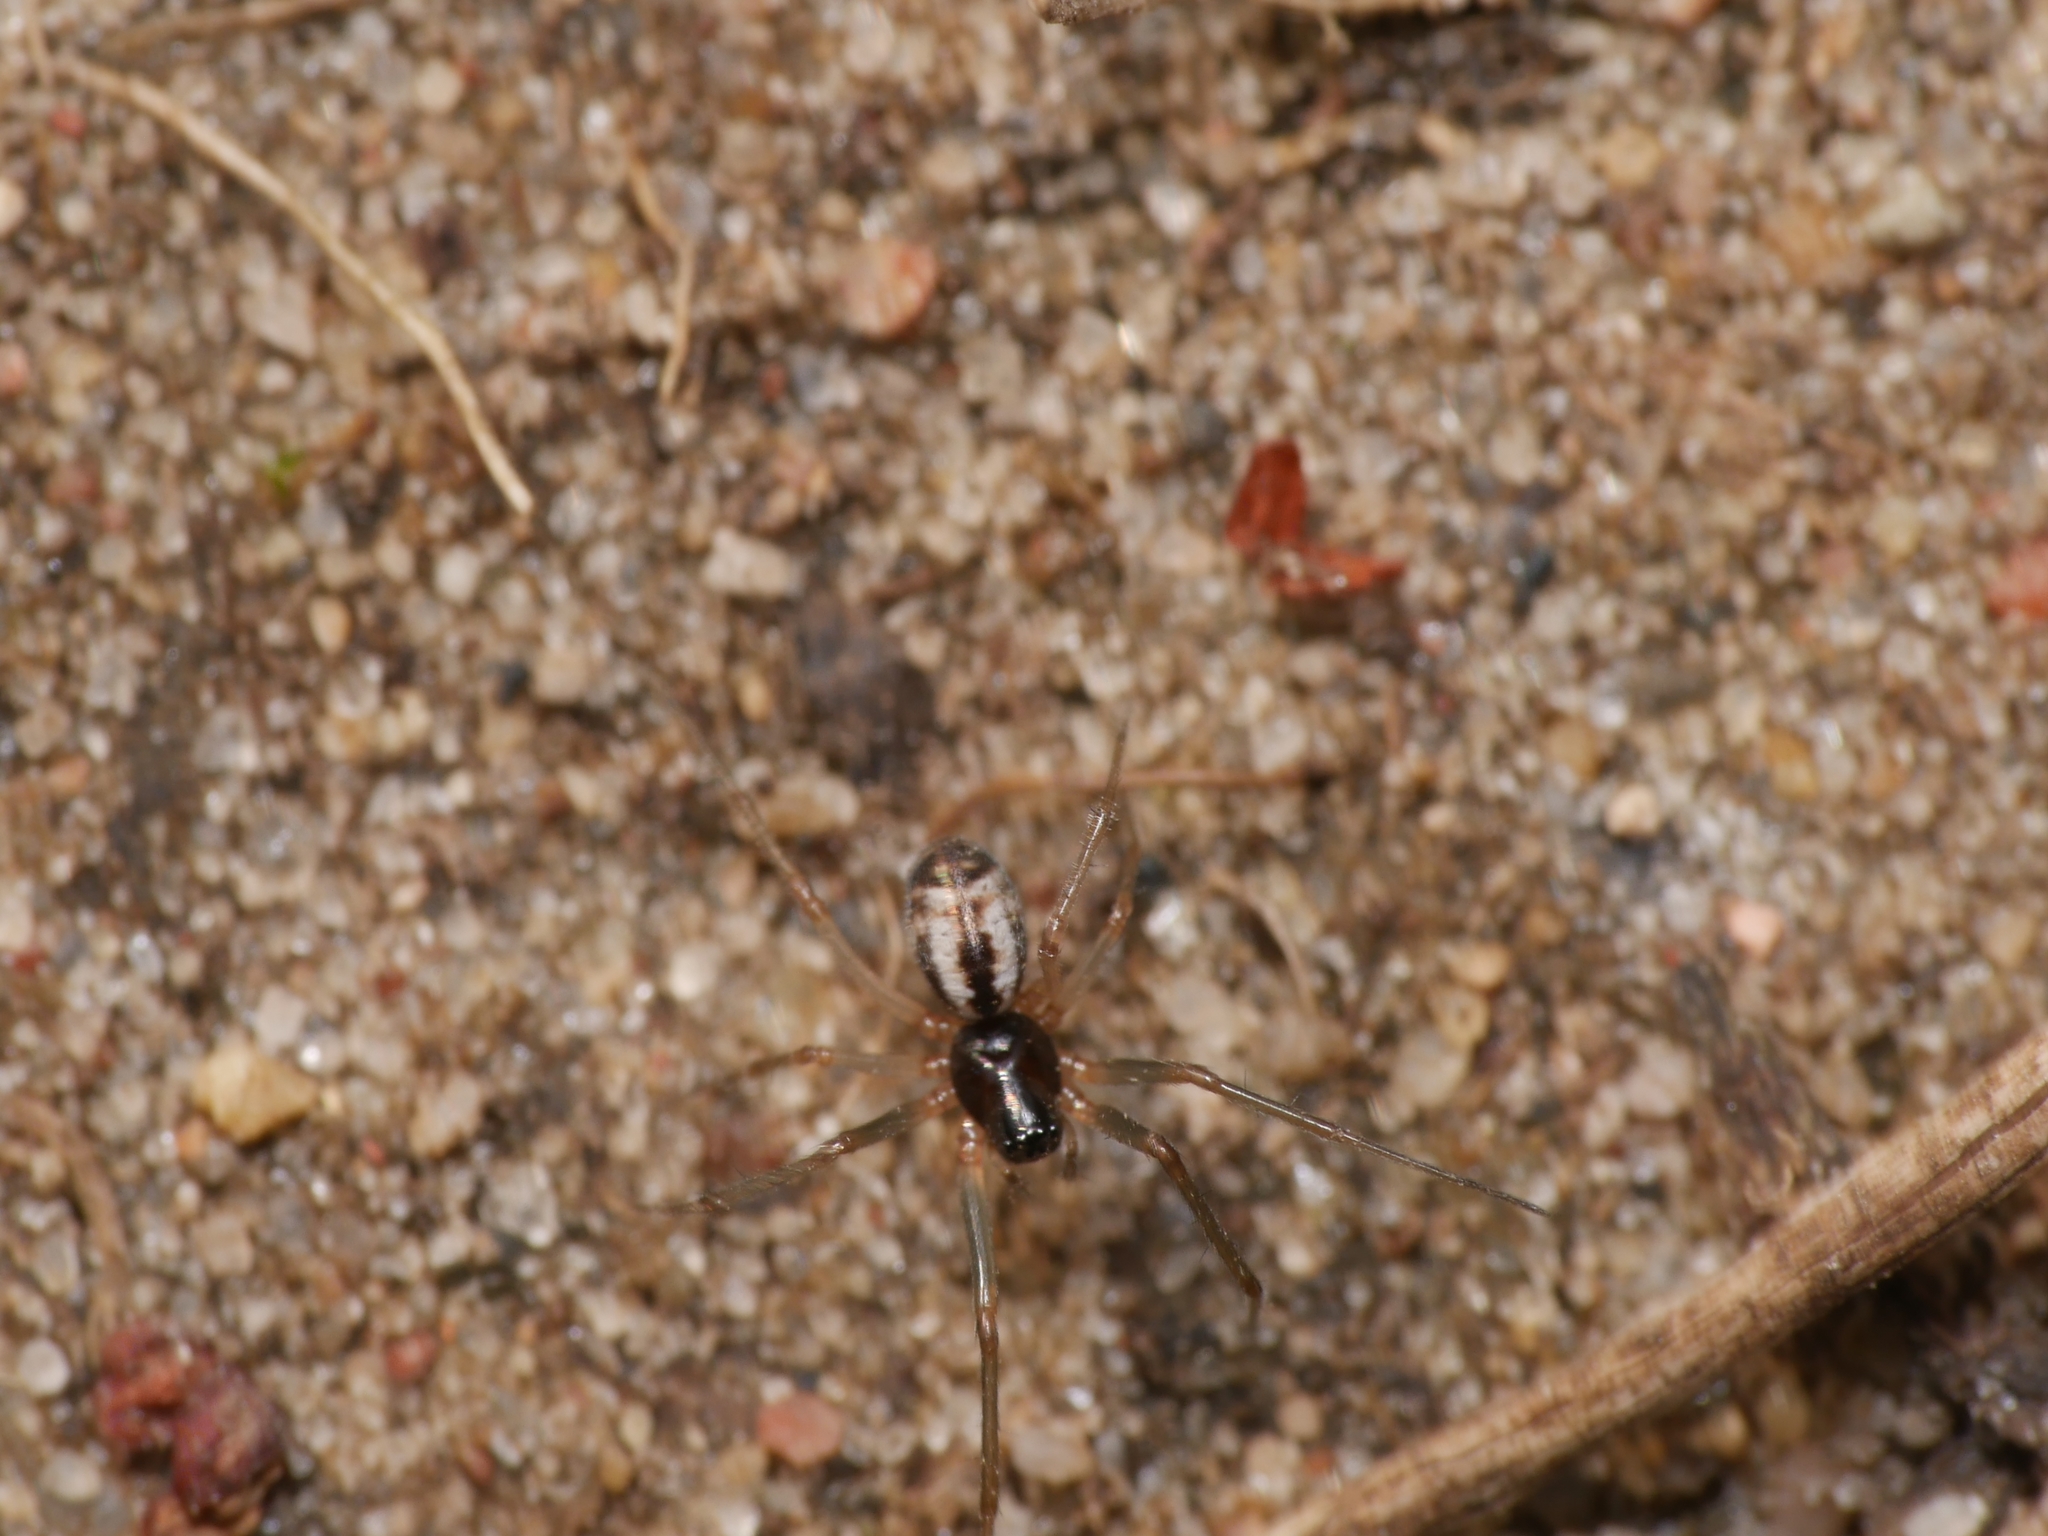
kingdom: Animalia
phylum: Arthropoda
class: Arachnida
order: Araneae
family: Linyphiidae
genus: Microlinyphia
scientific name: Microlinyphia pusilla
